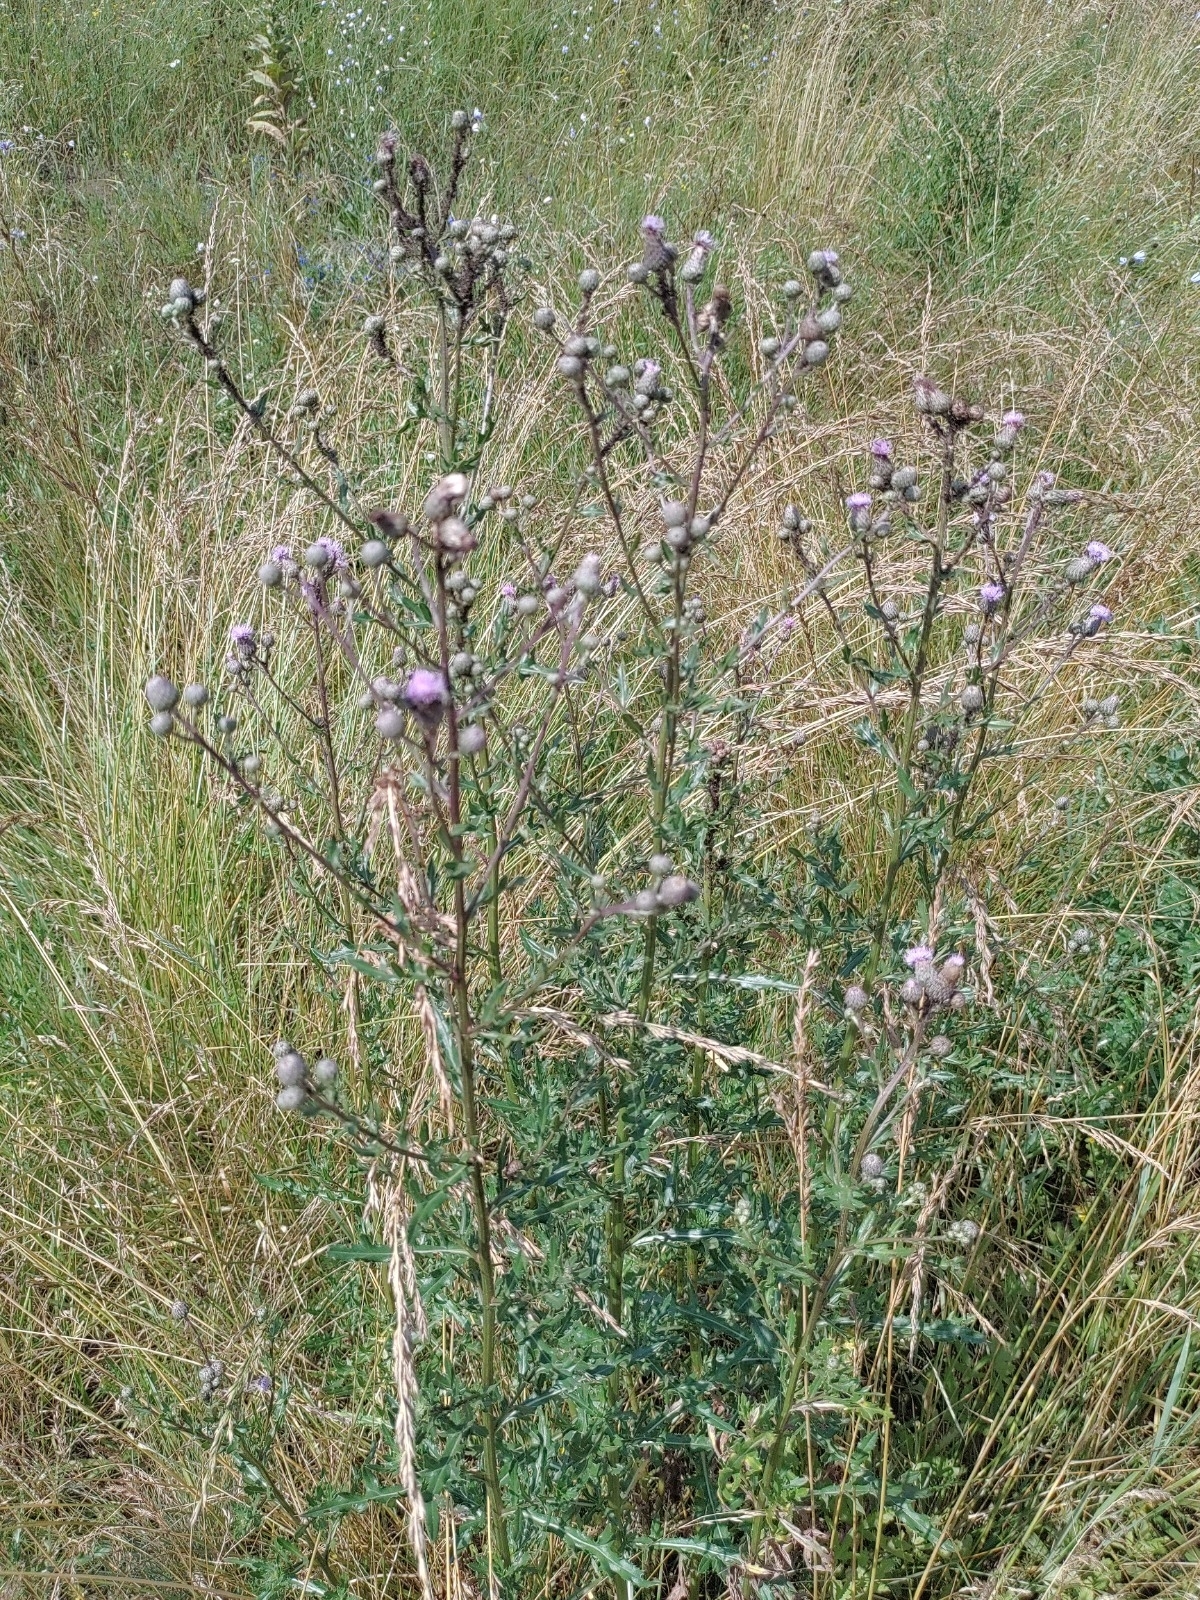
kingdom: Plantae
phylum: Tracheophyta
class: Magnoliopsida
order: Asterales
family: Asteraceae
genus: Cirsium
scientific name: Cirsium arvense
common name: Creeping thistle
